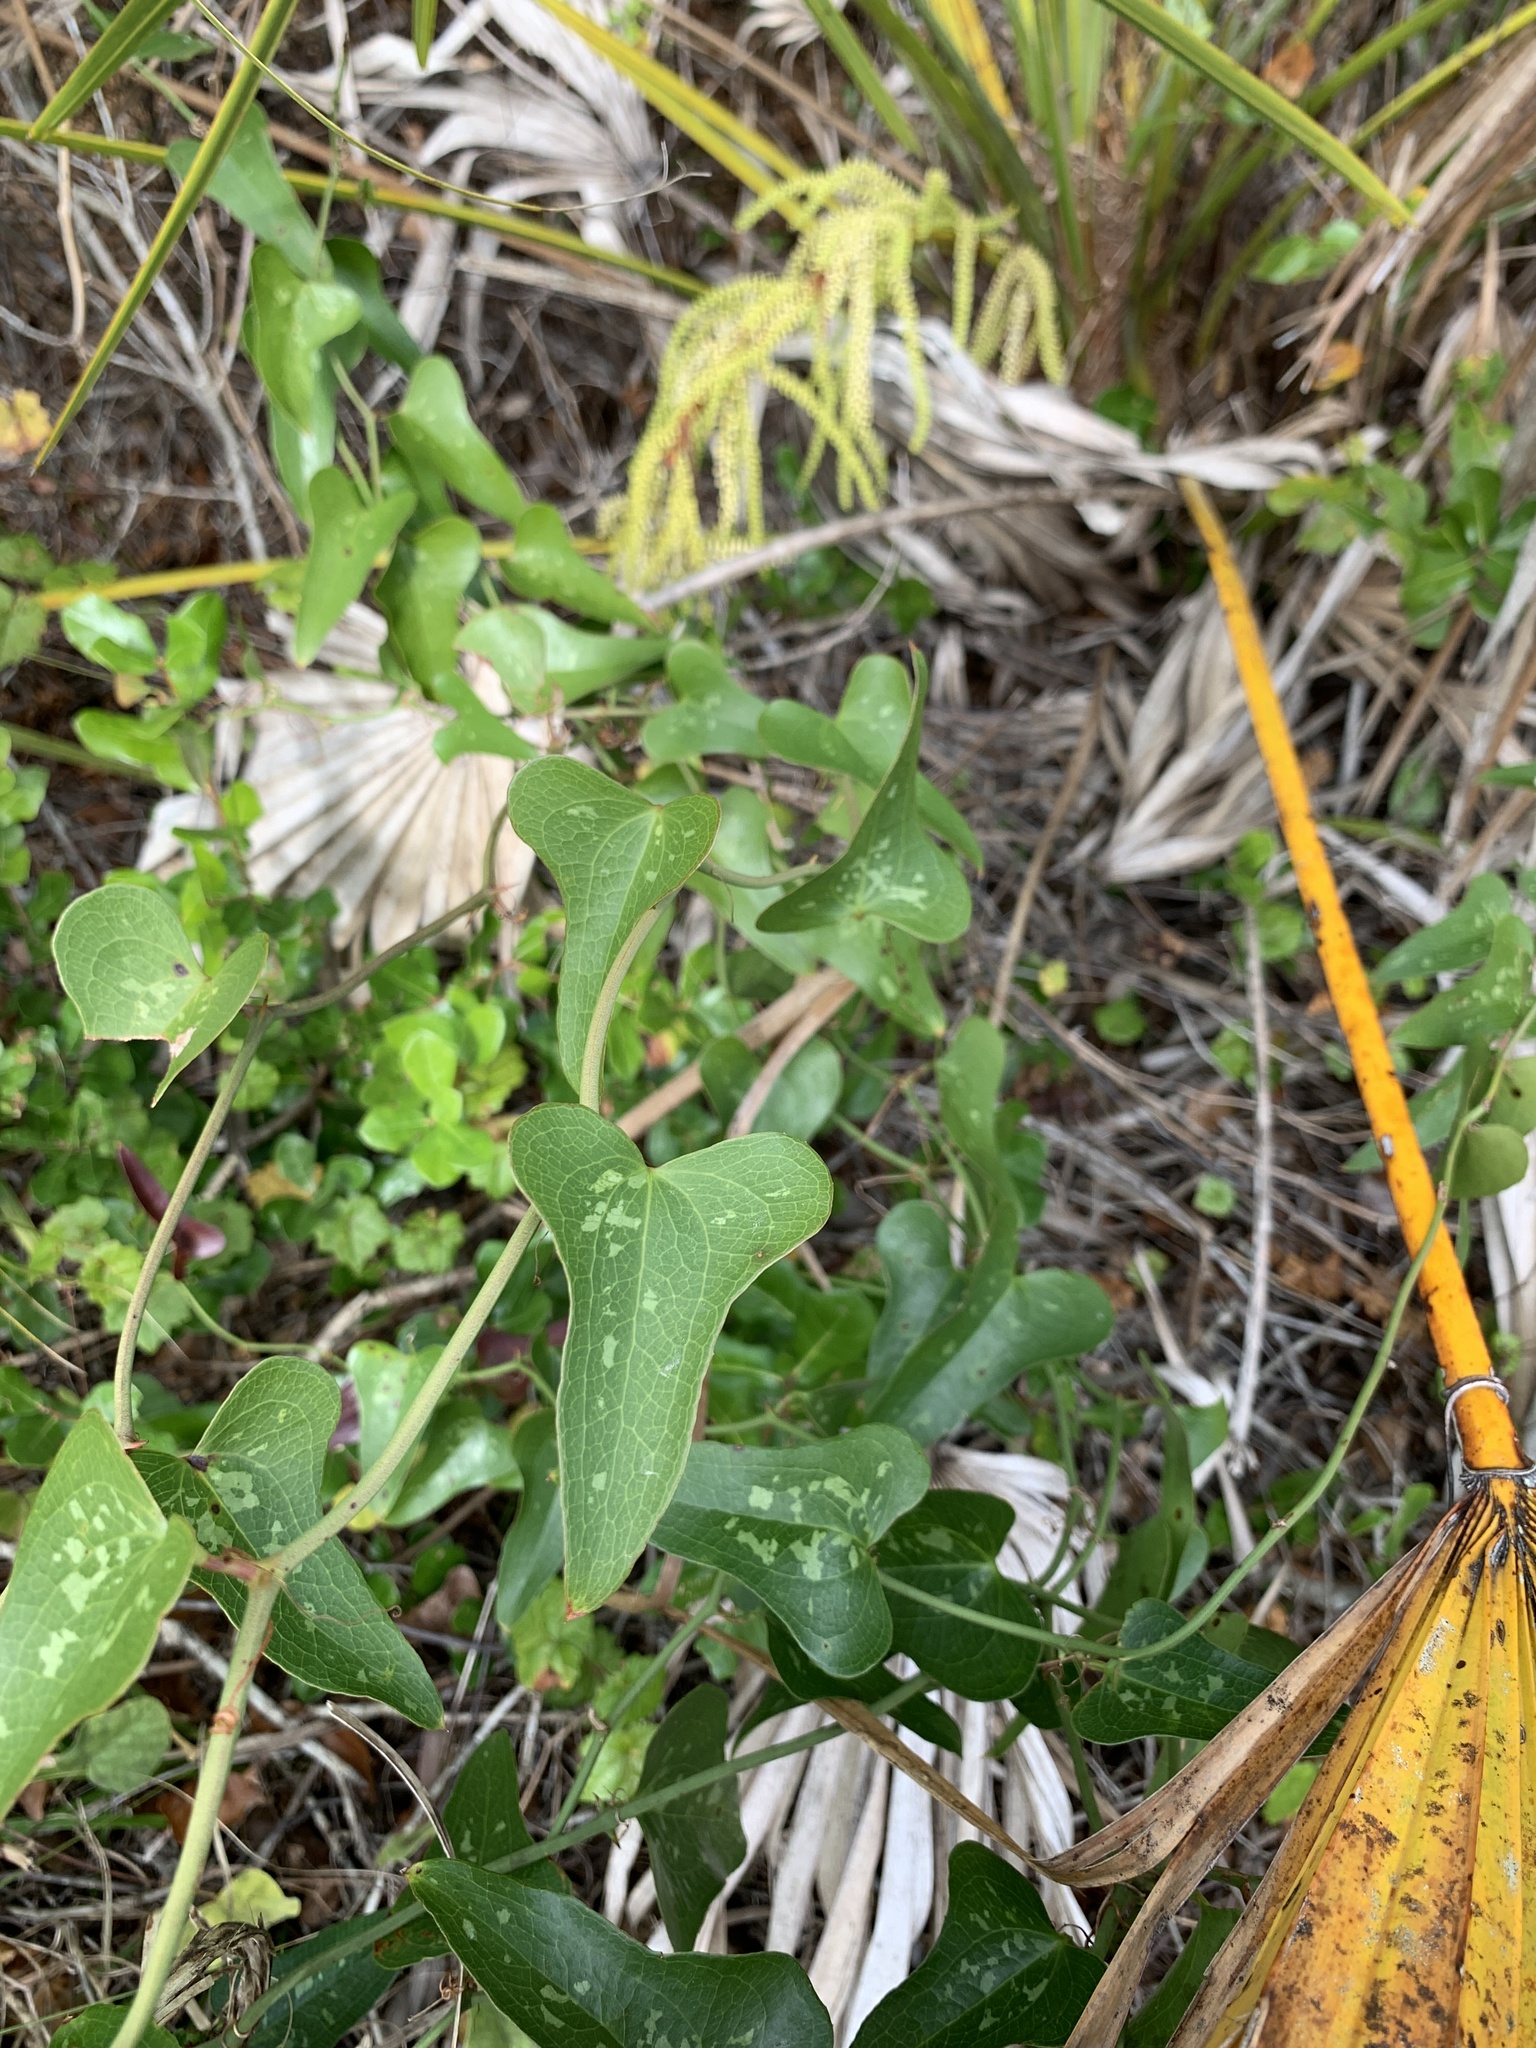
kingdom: Plantae
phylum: Tracheophyta
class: Liliopsida
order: Liliales
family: Smilacaceae
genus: Smilax
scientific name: Smilax auriculata
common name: Wild bamboo
